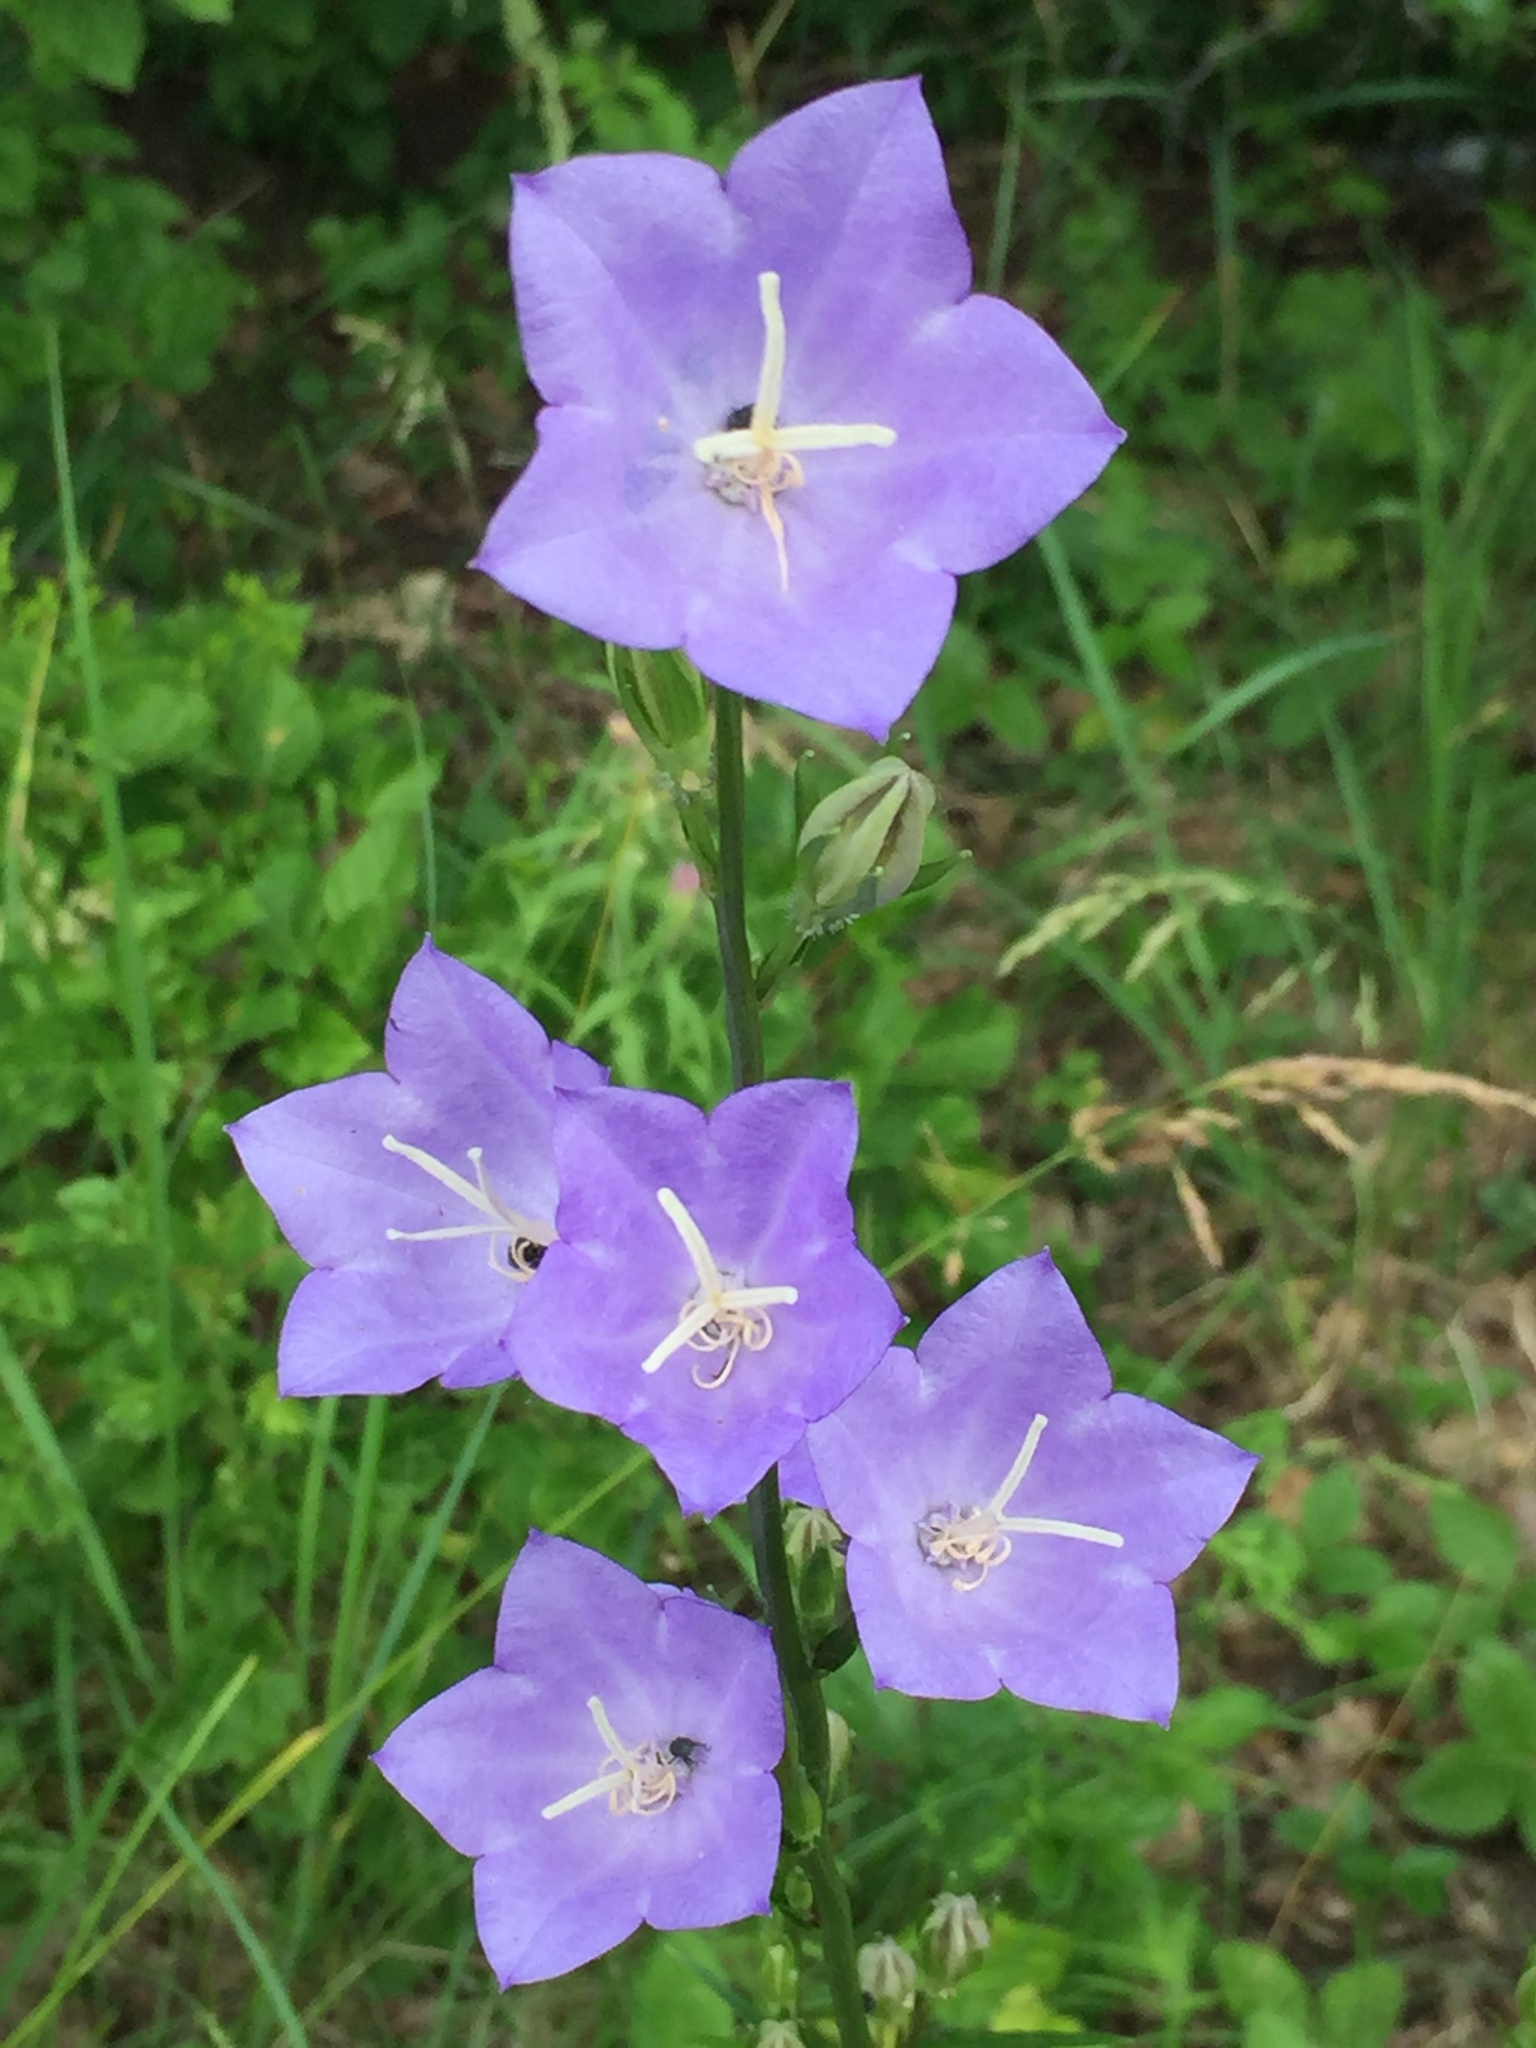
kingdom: Plantae
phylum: Tracheophyta
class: Magnoliopsida
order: Asterales
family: Campanulaceae
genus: Campanula
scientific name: Campanula persicifolia
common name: Peach-leaved bellflower
